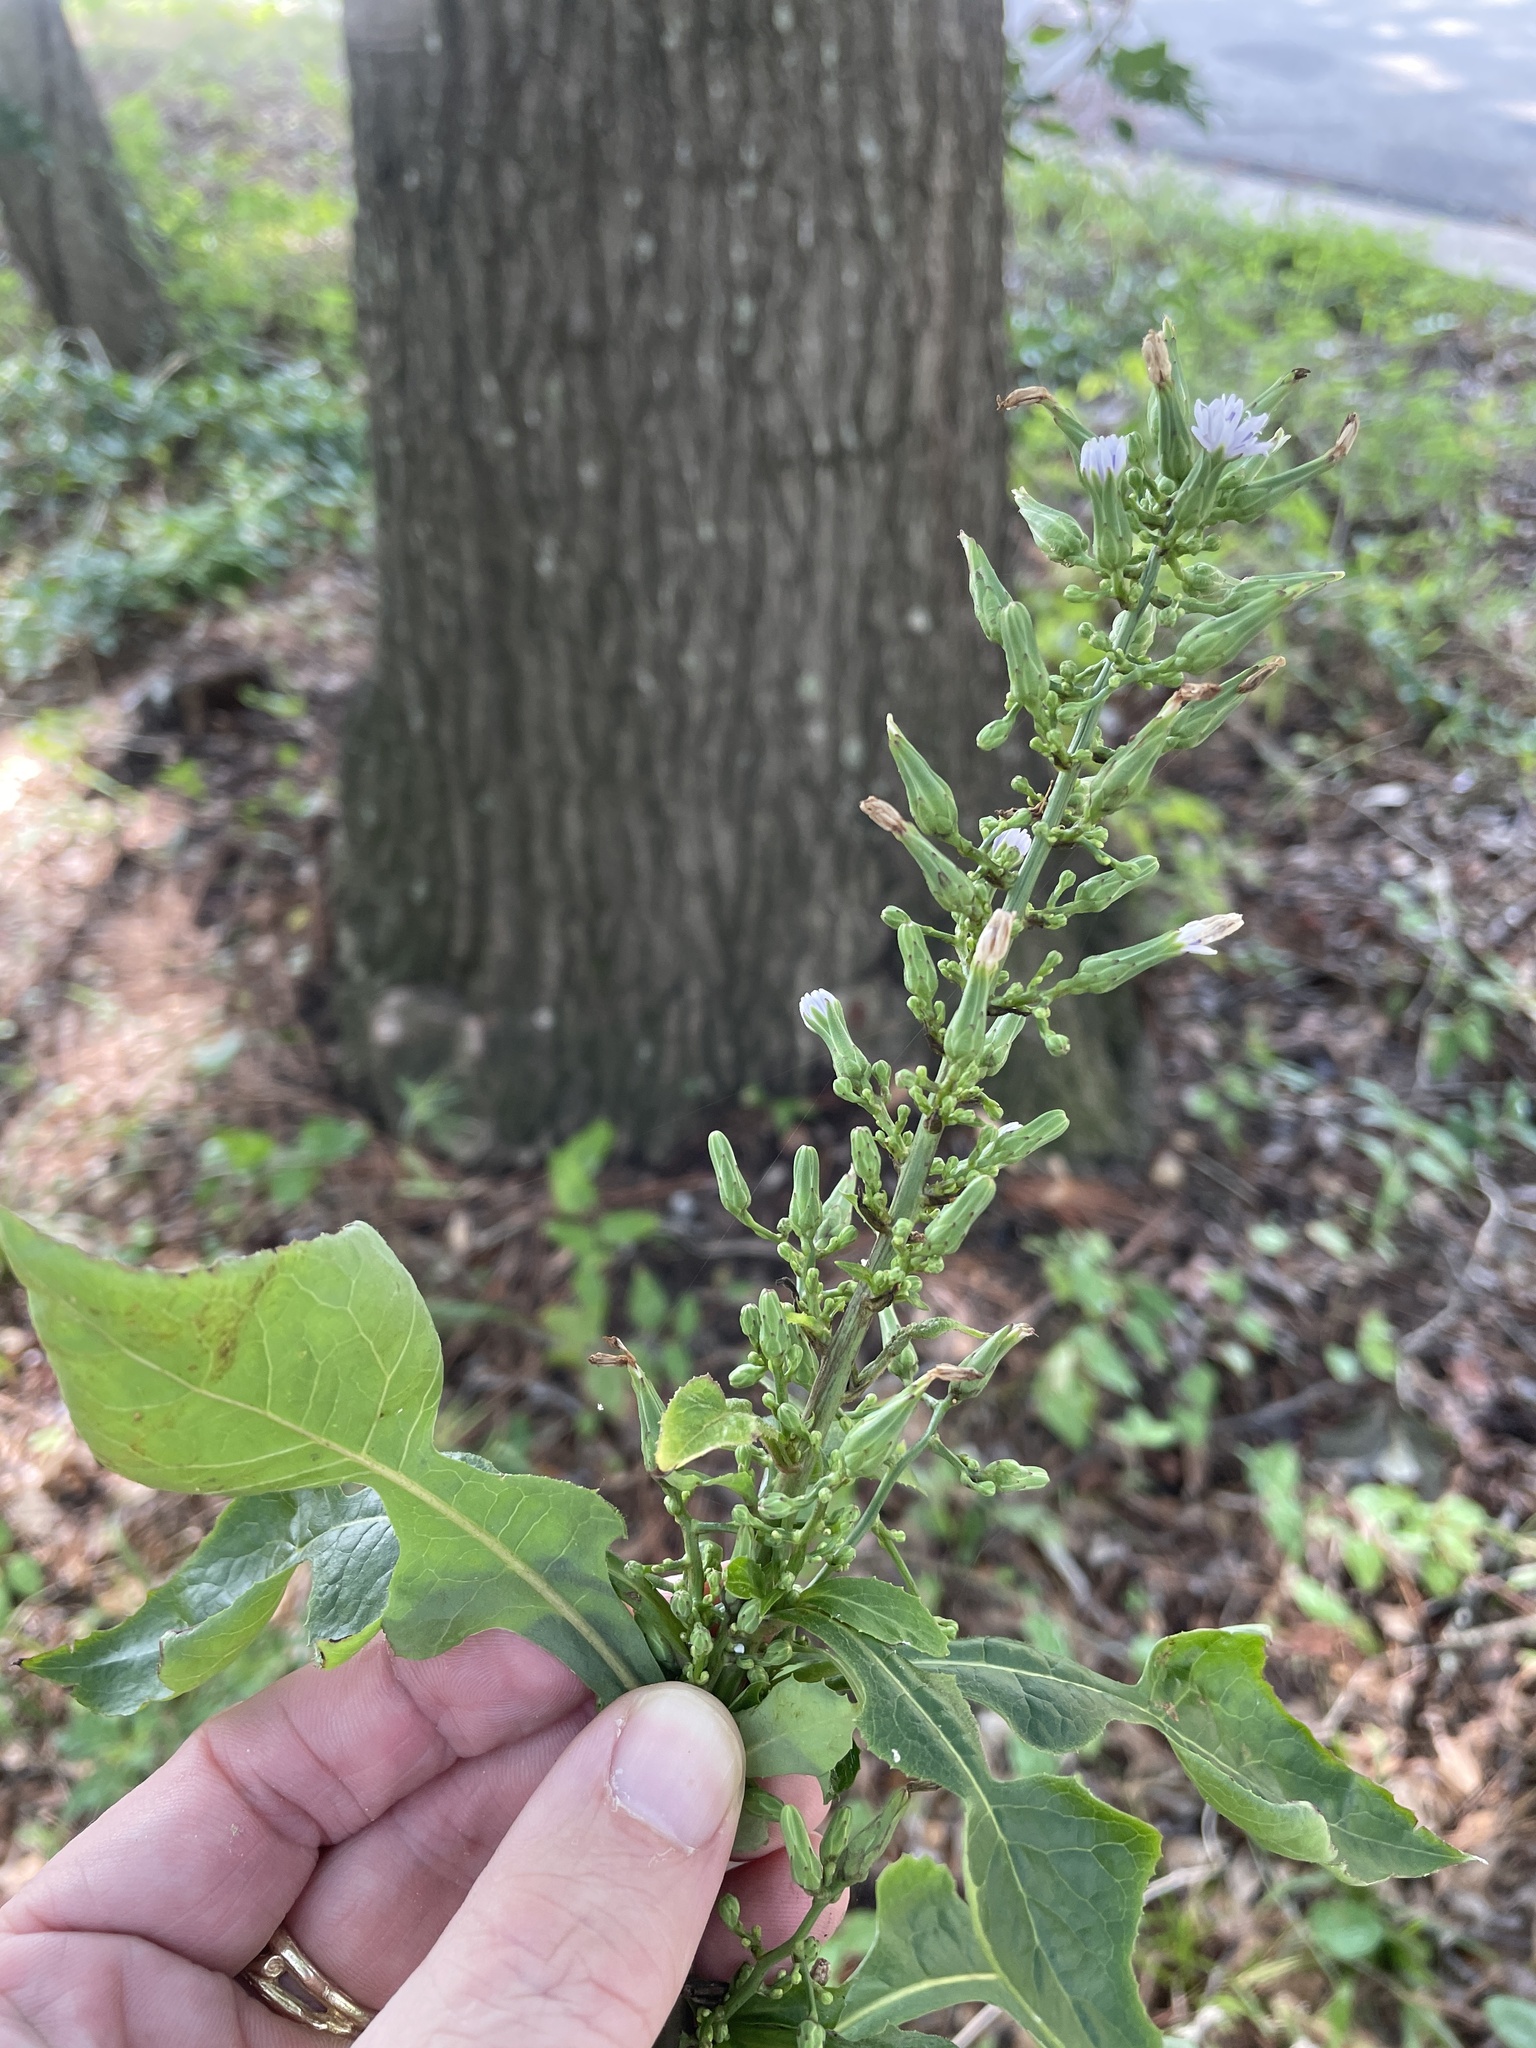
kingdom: Plantae
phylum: Tracheophyta
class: Magnoliopsida
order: Asterales
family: Asteraceae
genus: Lactuca
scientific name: Lactuca floridana
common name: Woodland lettuce
